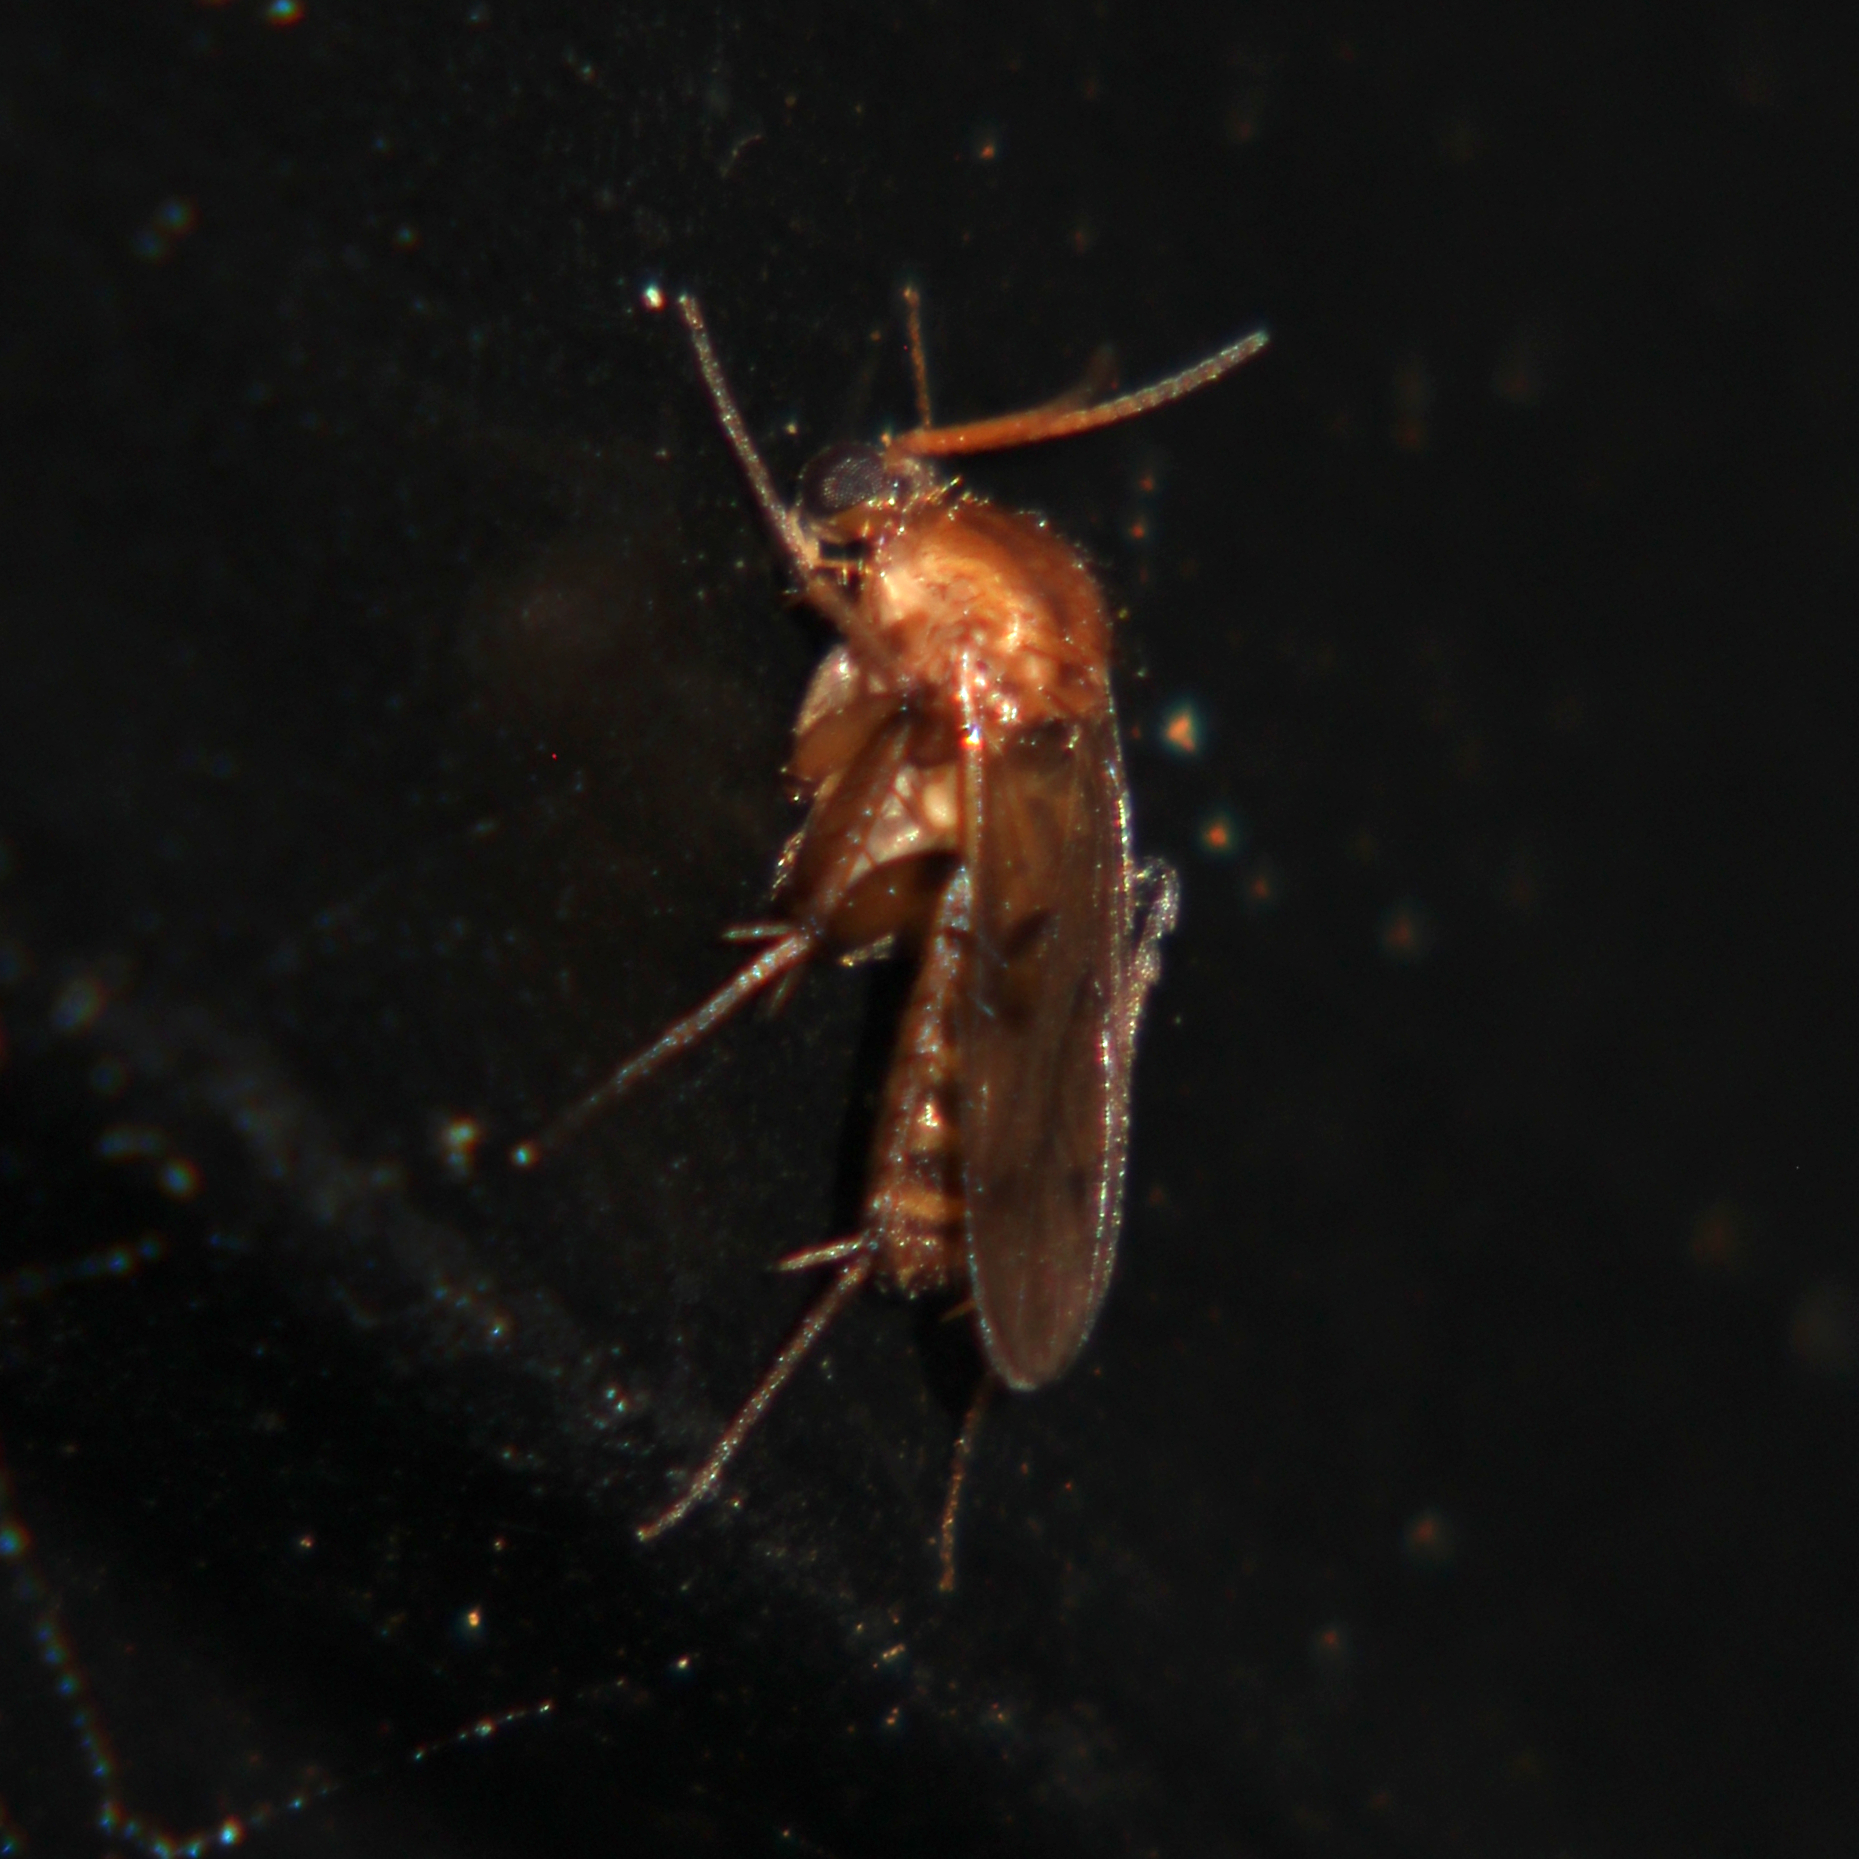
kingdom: Animalia
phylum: Arthropoda
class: Insecta
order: Diptera
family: Mycetophilidae
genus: Anomalomyia
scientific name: Anomalomyia guttata
